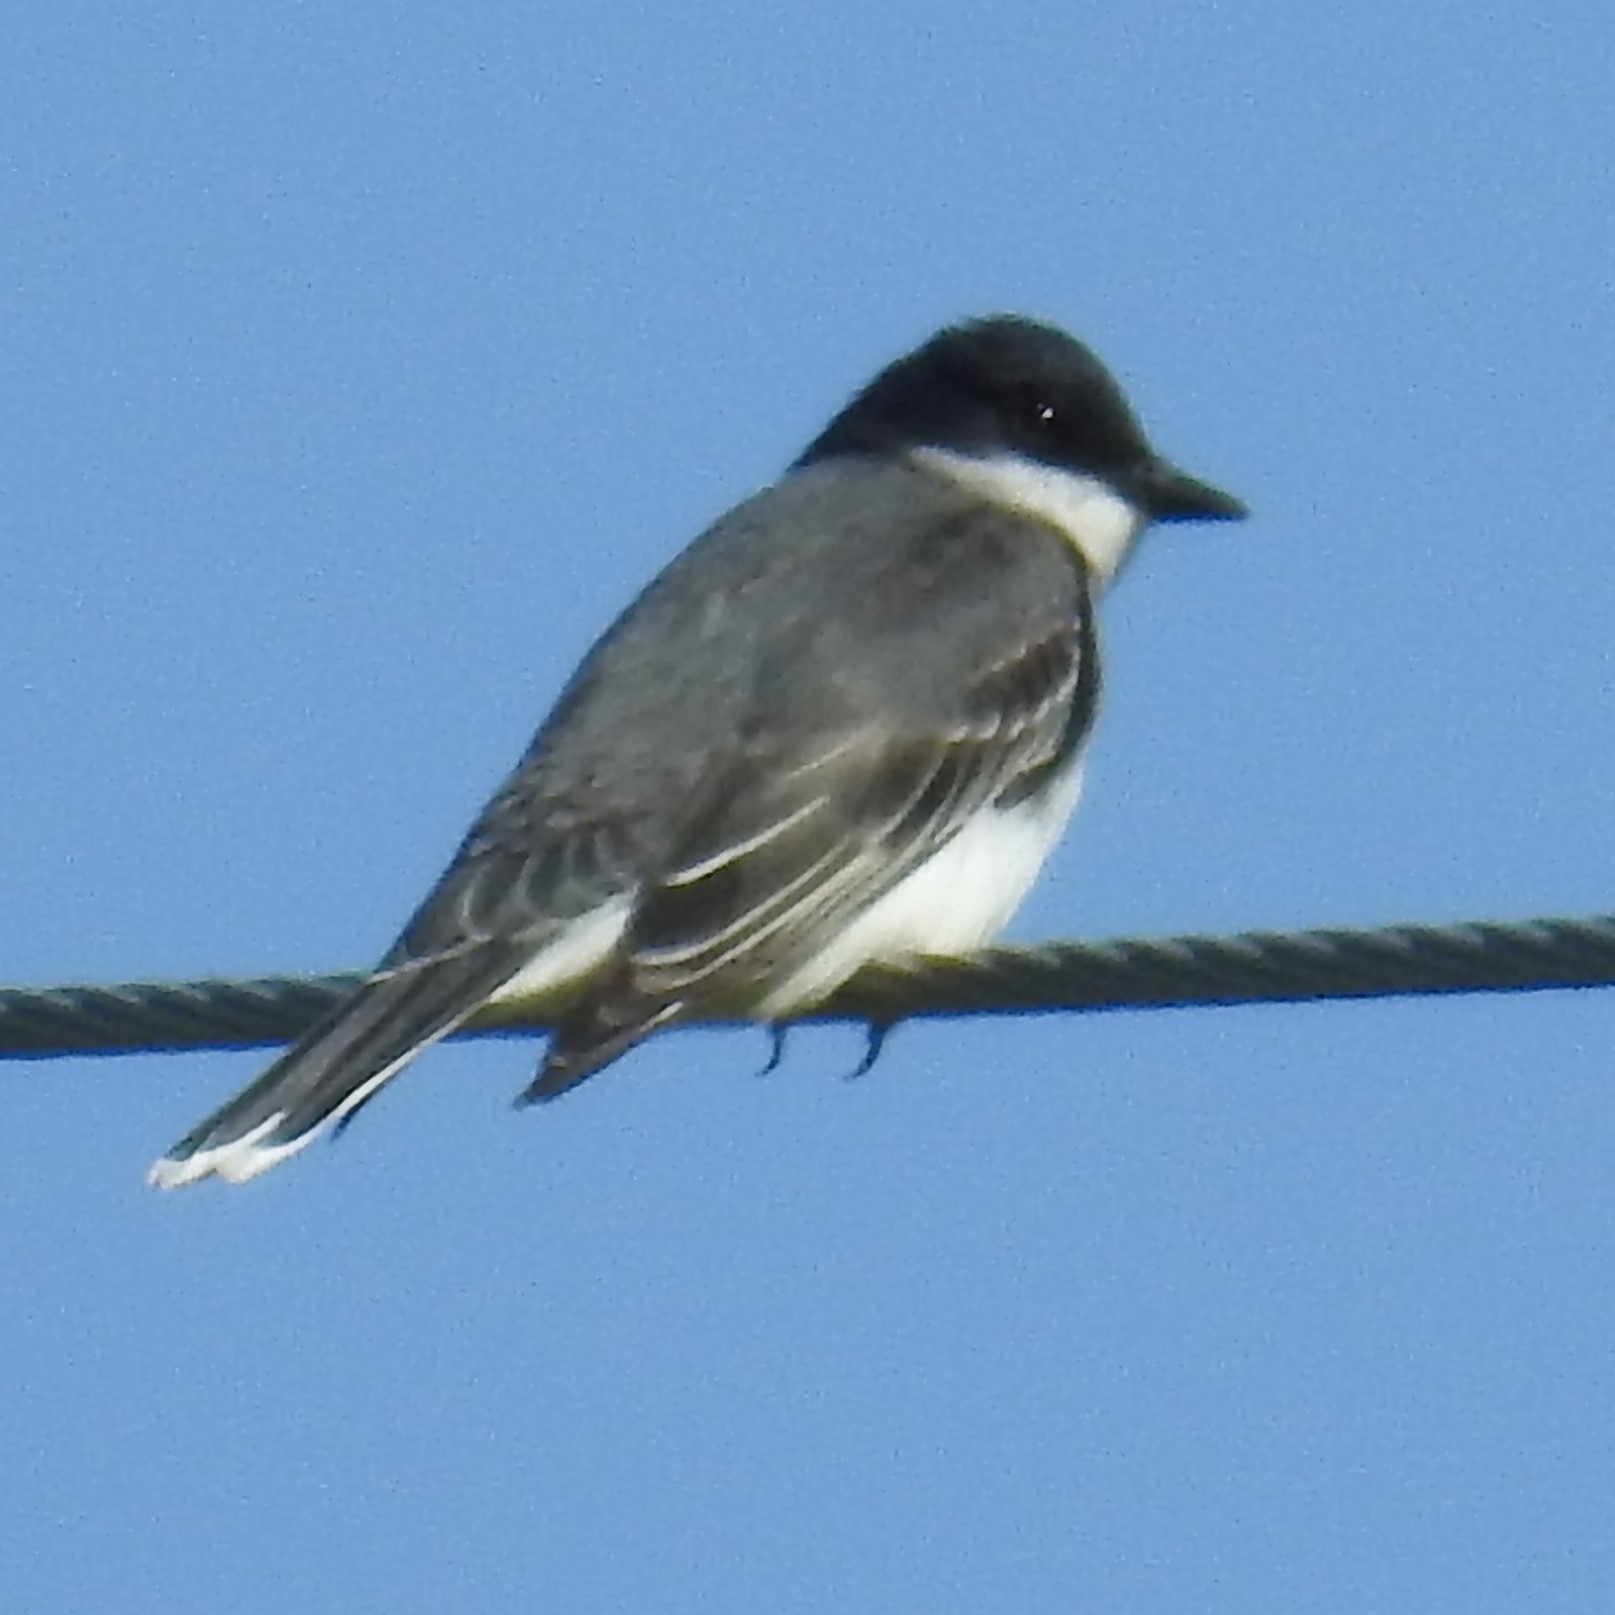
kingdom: Animalia
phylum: Chordata
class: Aves
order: Passeriformes
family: Tyrannidae
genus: Tyrannus
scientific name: Tyrannus tyrannus
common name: Eastern kingbird
